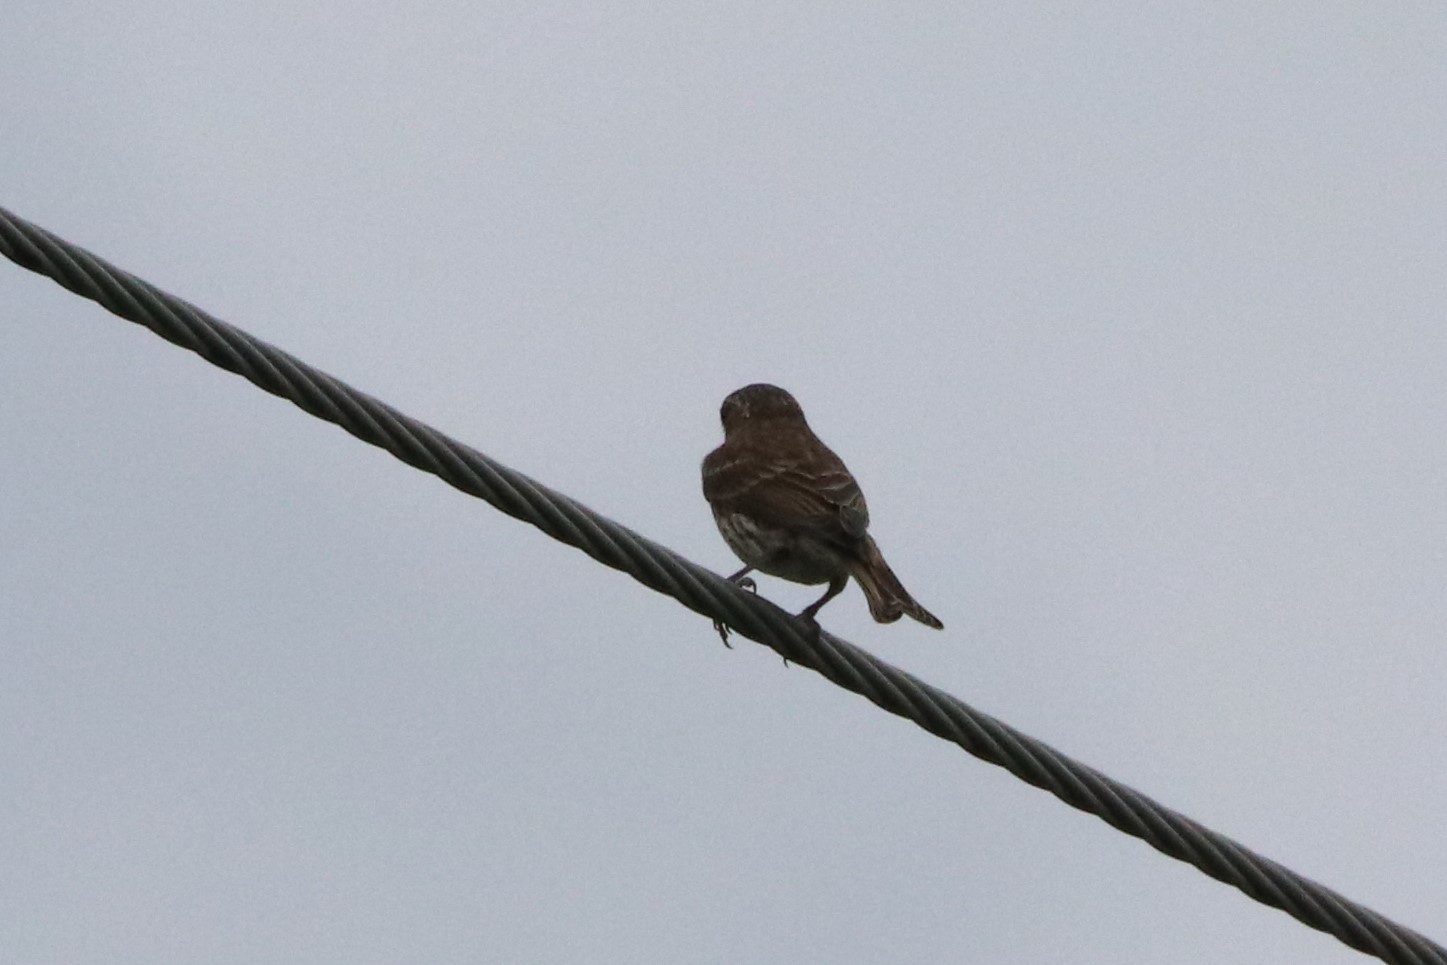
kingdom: Animalia
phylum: Chordata
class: Aves
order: Passeriformes
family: Fringillidae
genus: Haemorhous
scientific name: Haemorhous purpureus
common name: Purple finch
